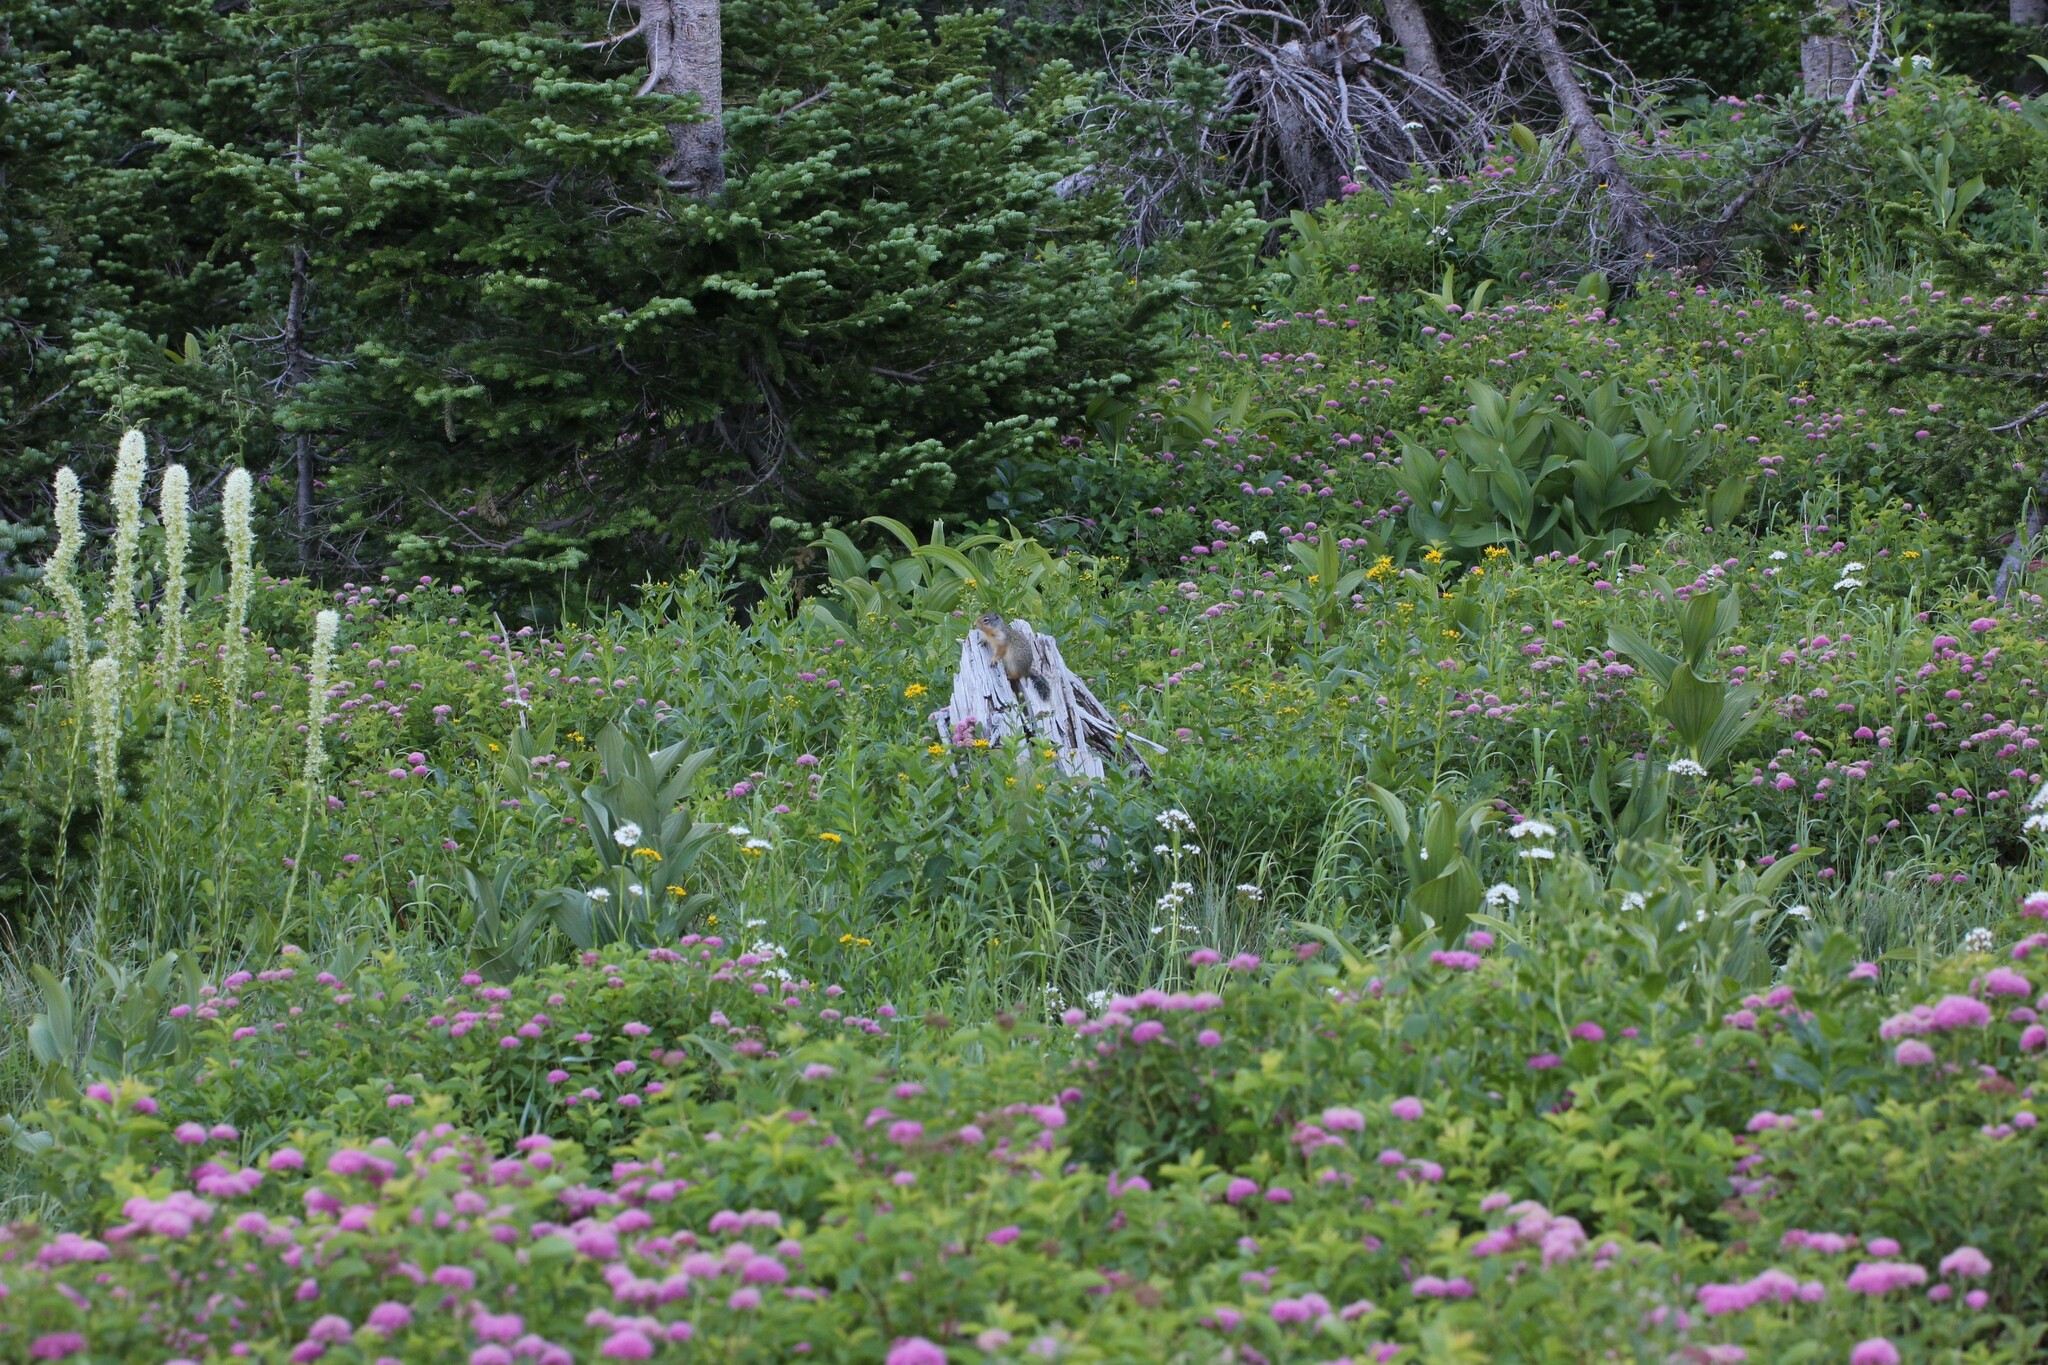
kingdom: Animalia
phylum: Chordata
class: Mammalia
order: Rodentia
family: Sciuridae
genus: Urocitellus
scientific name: Urocitellus columbianus
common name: Columbian ground squirrel
